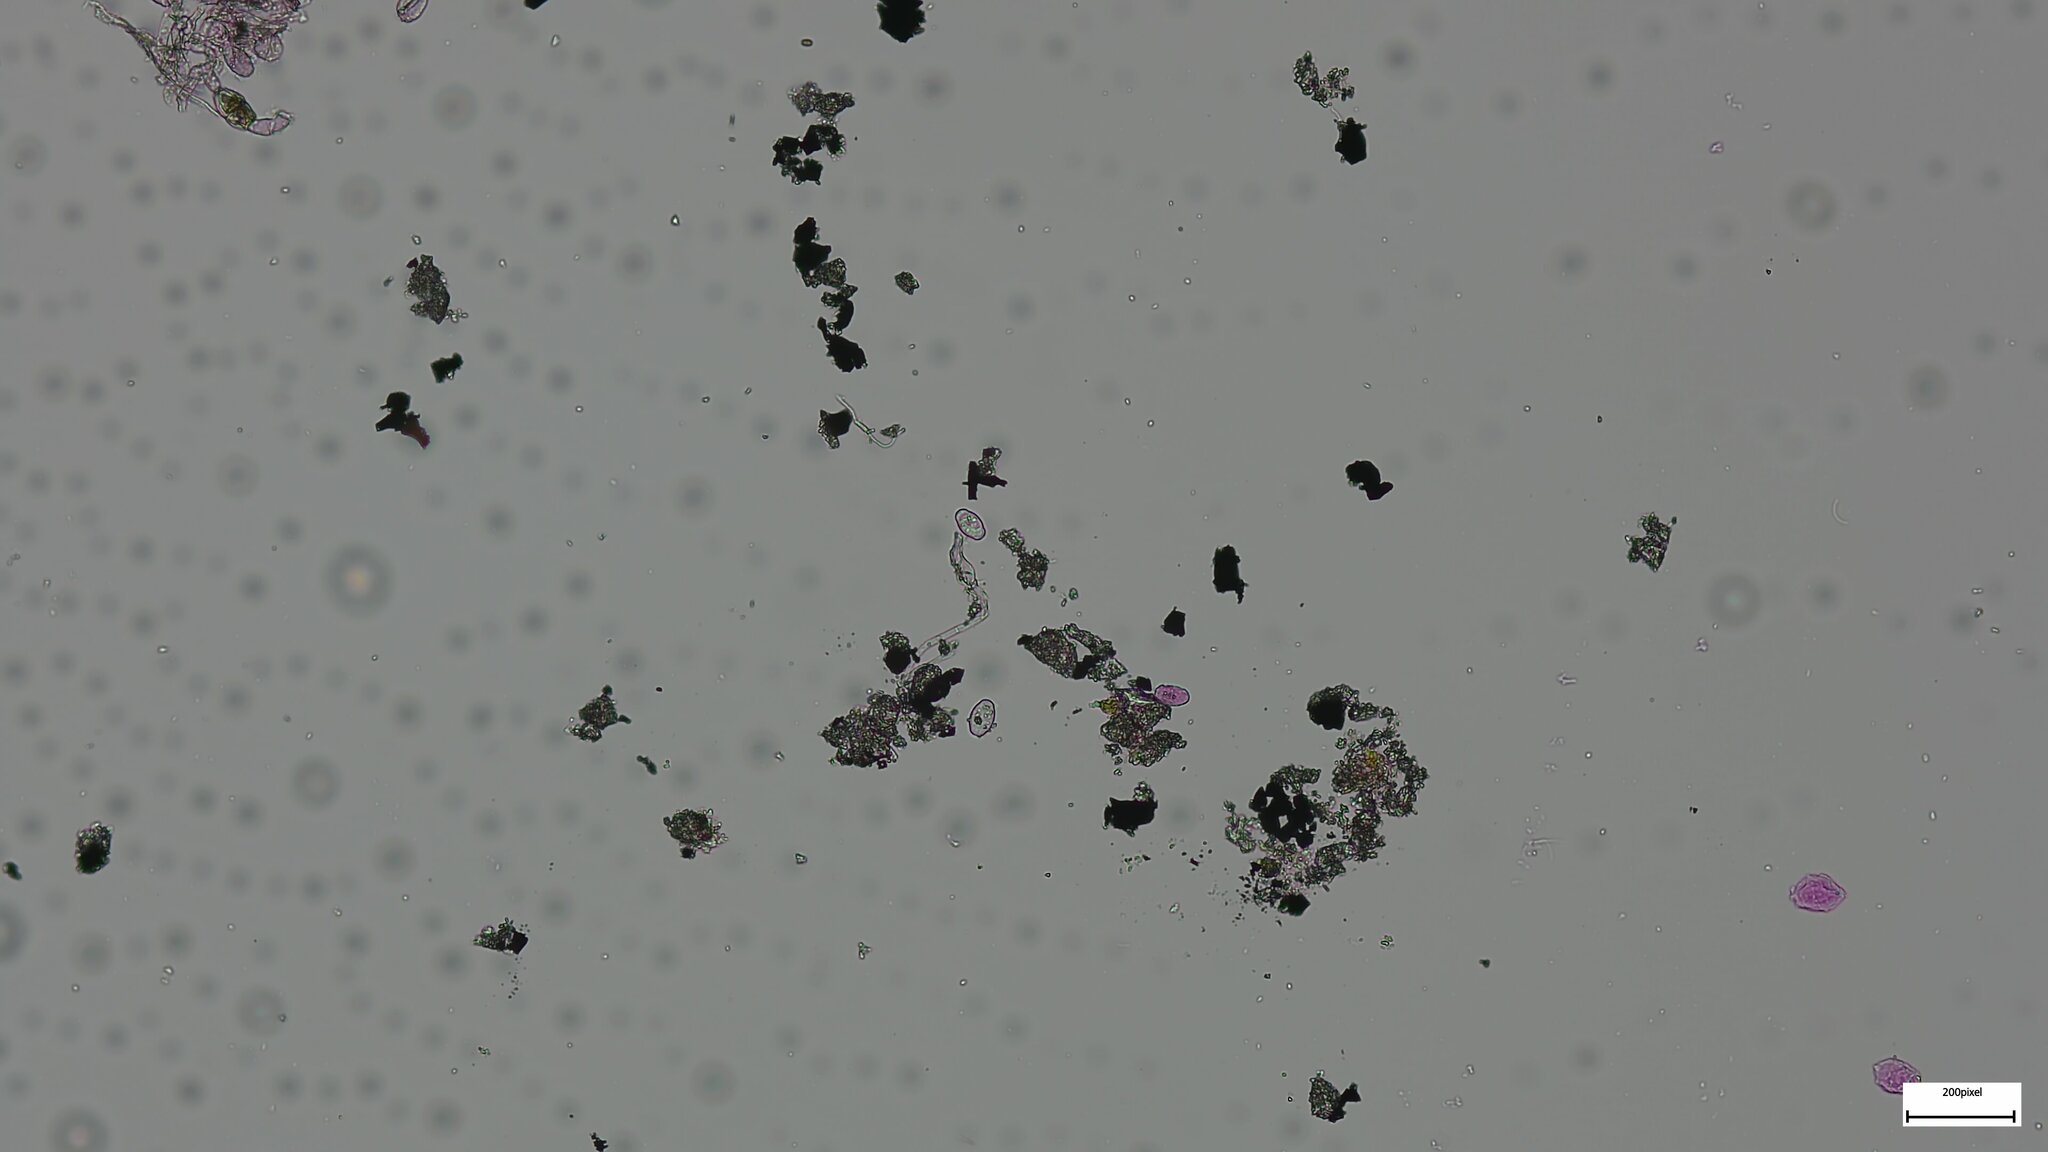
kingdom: Fungi
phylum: Ascomycota
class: Leotiomycetes
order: Helotiales
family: Erysiphaceae
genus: Podosphaera
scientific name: Podosphaera aphanis
